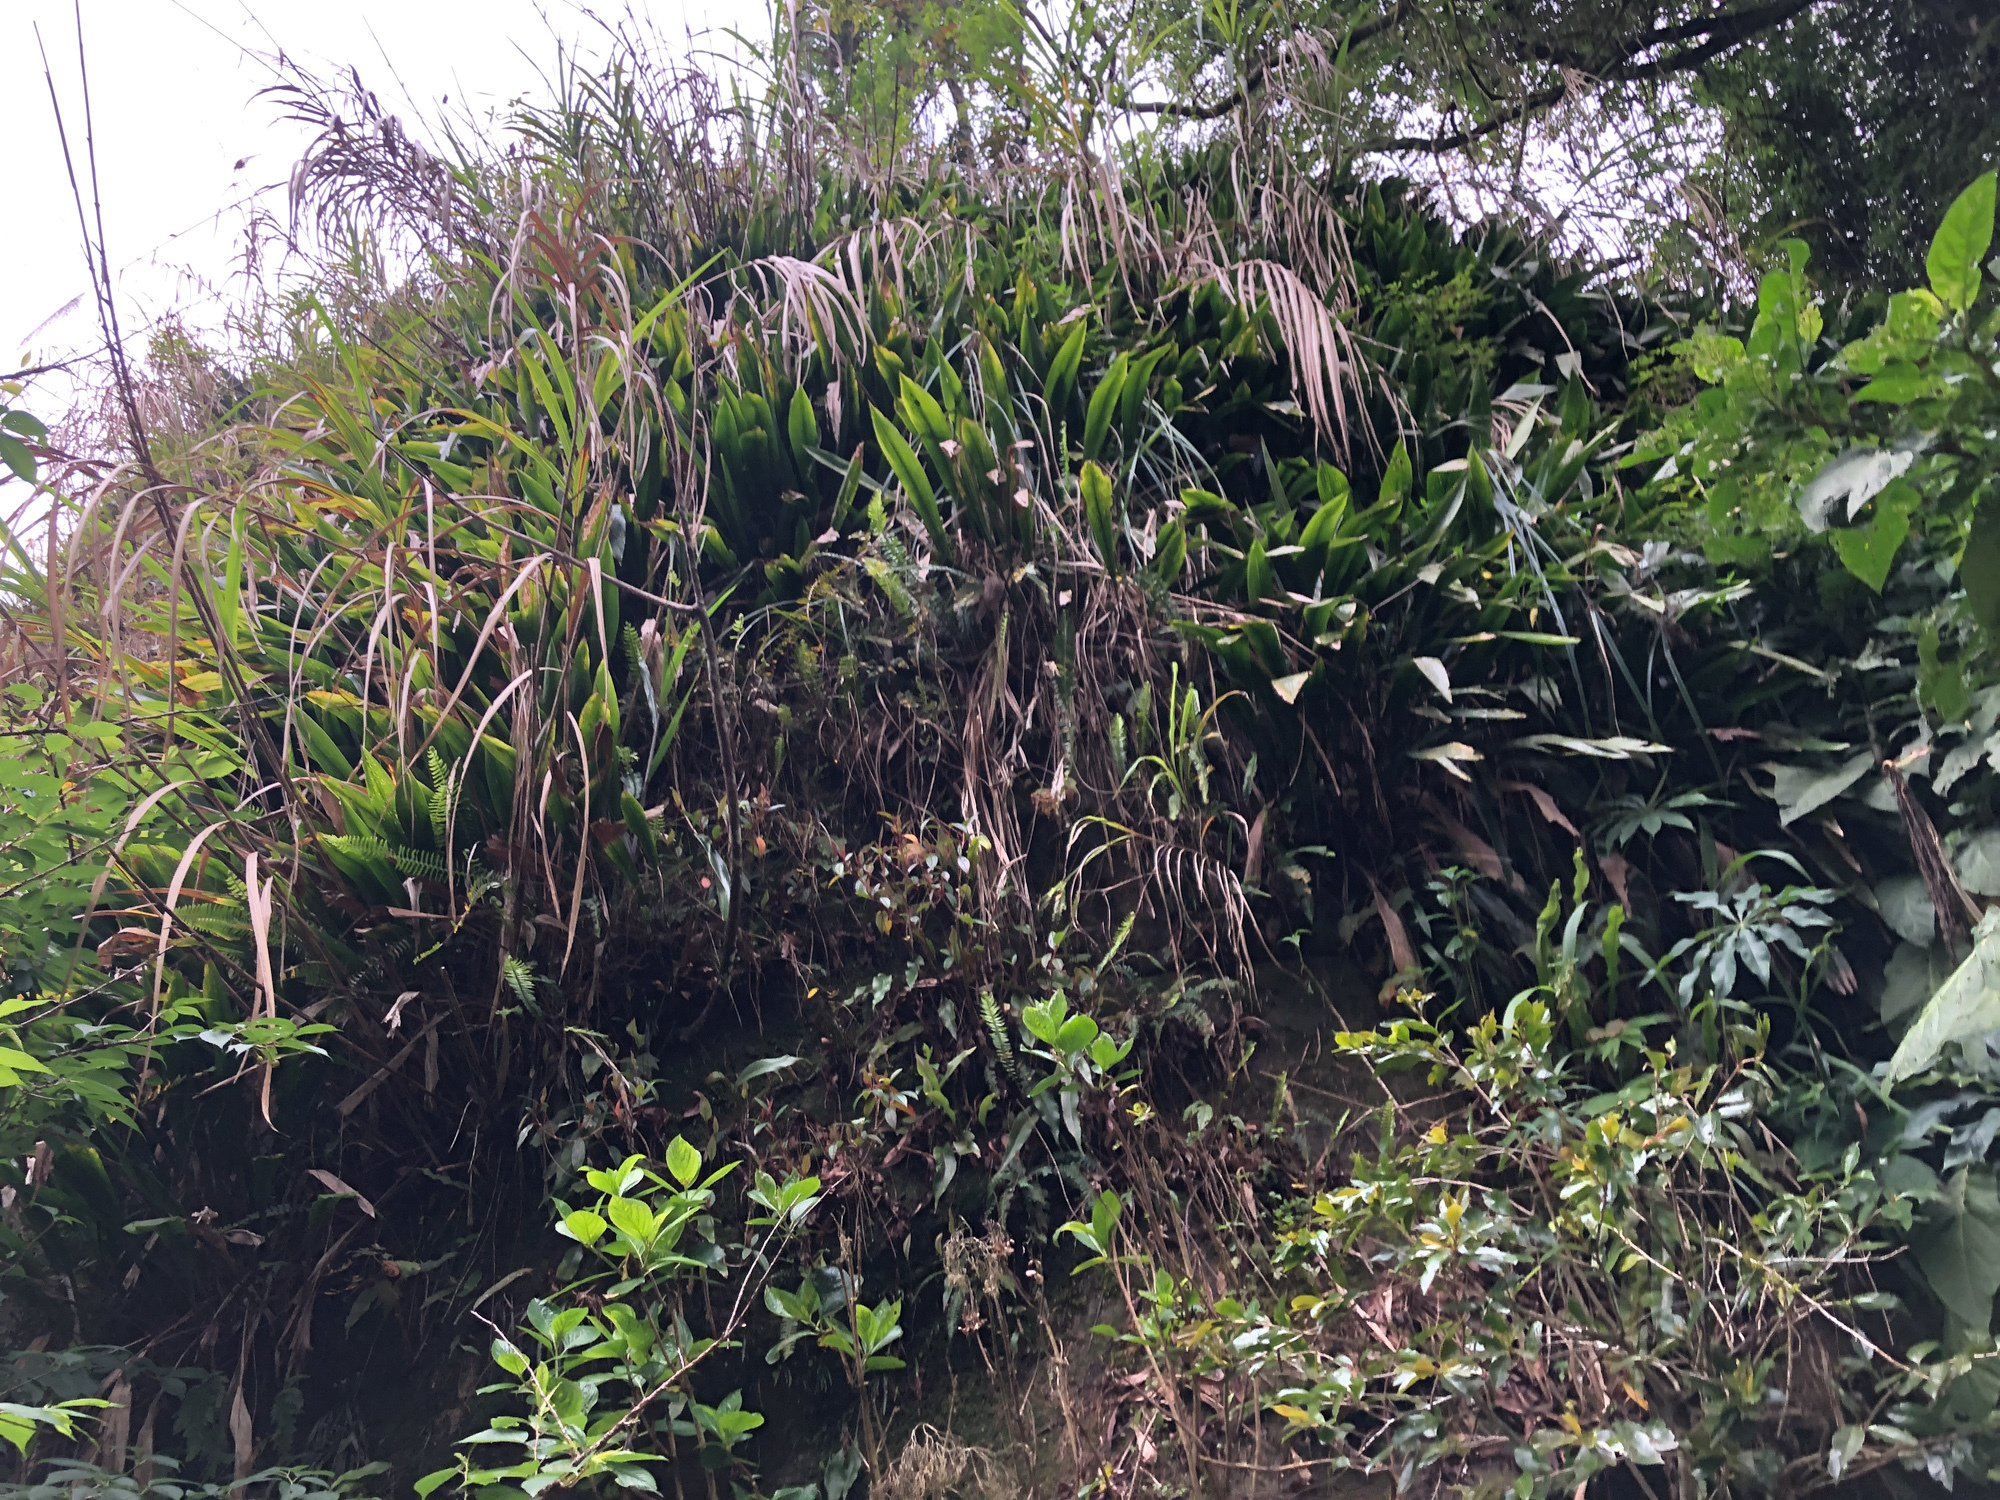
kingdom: Plantae
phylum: Tracheophyta
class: Liliopsida
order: Asparagales
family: Asparagaceae
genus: Aspidistra
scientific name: Aspidistra attenuata
